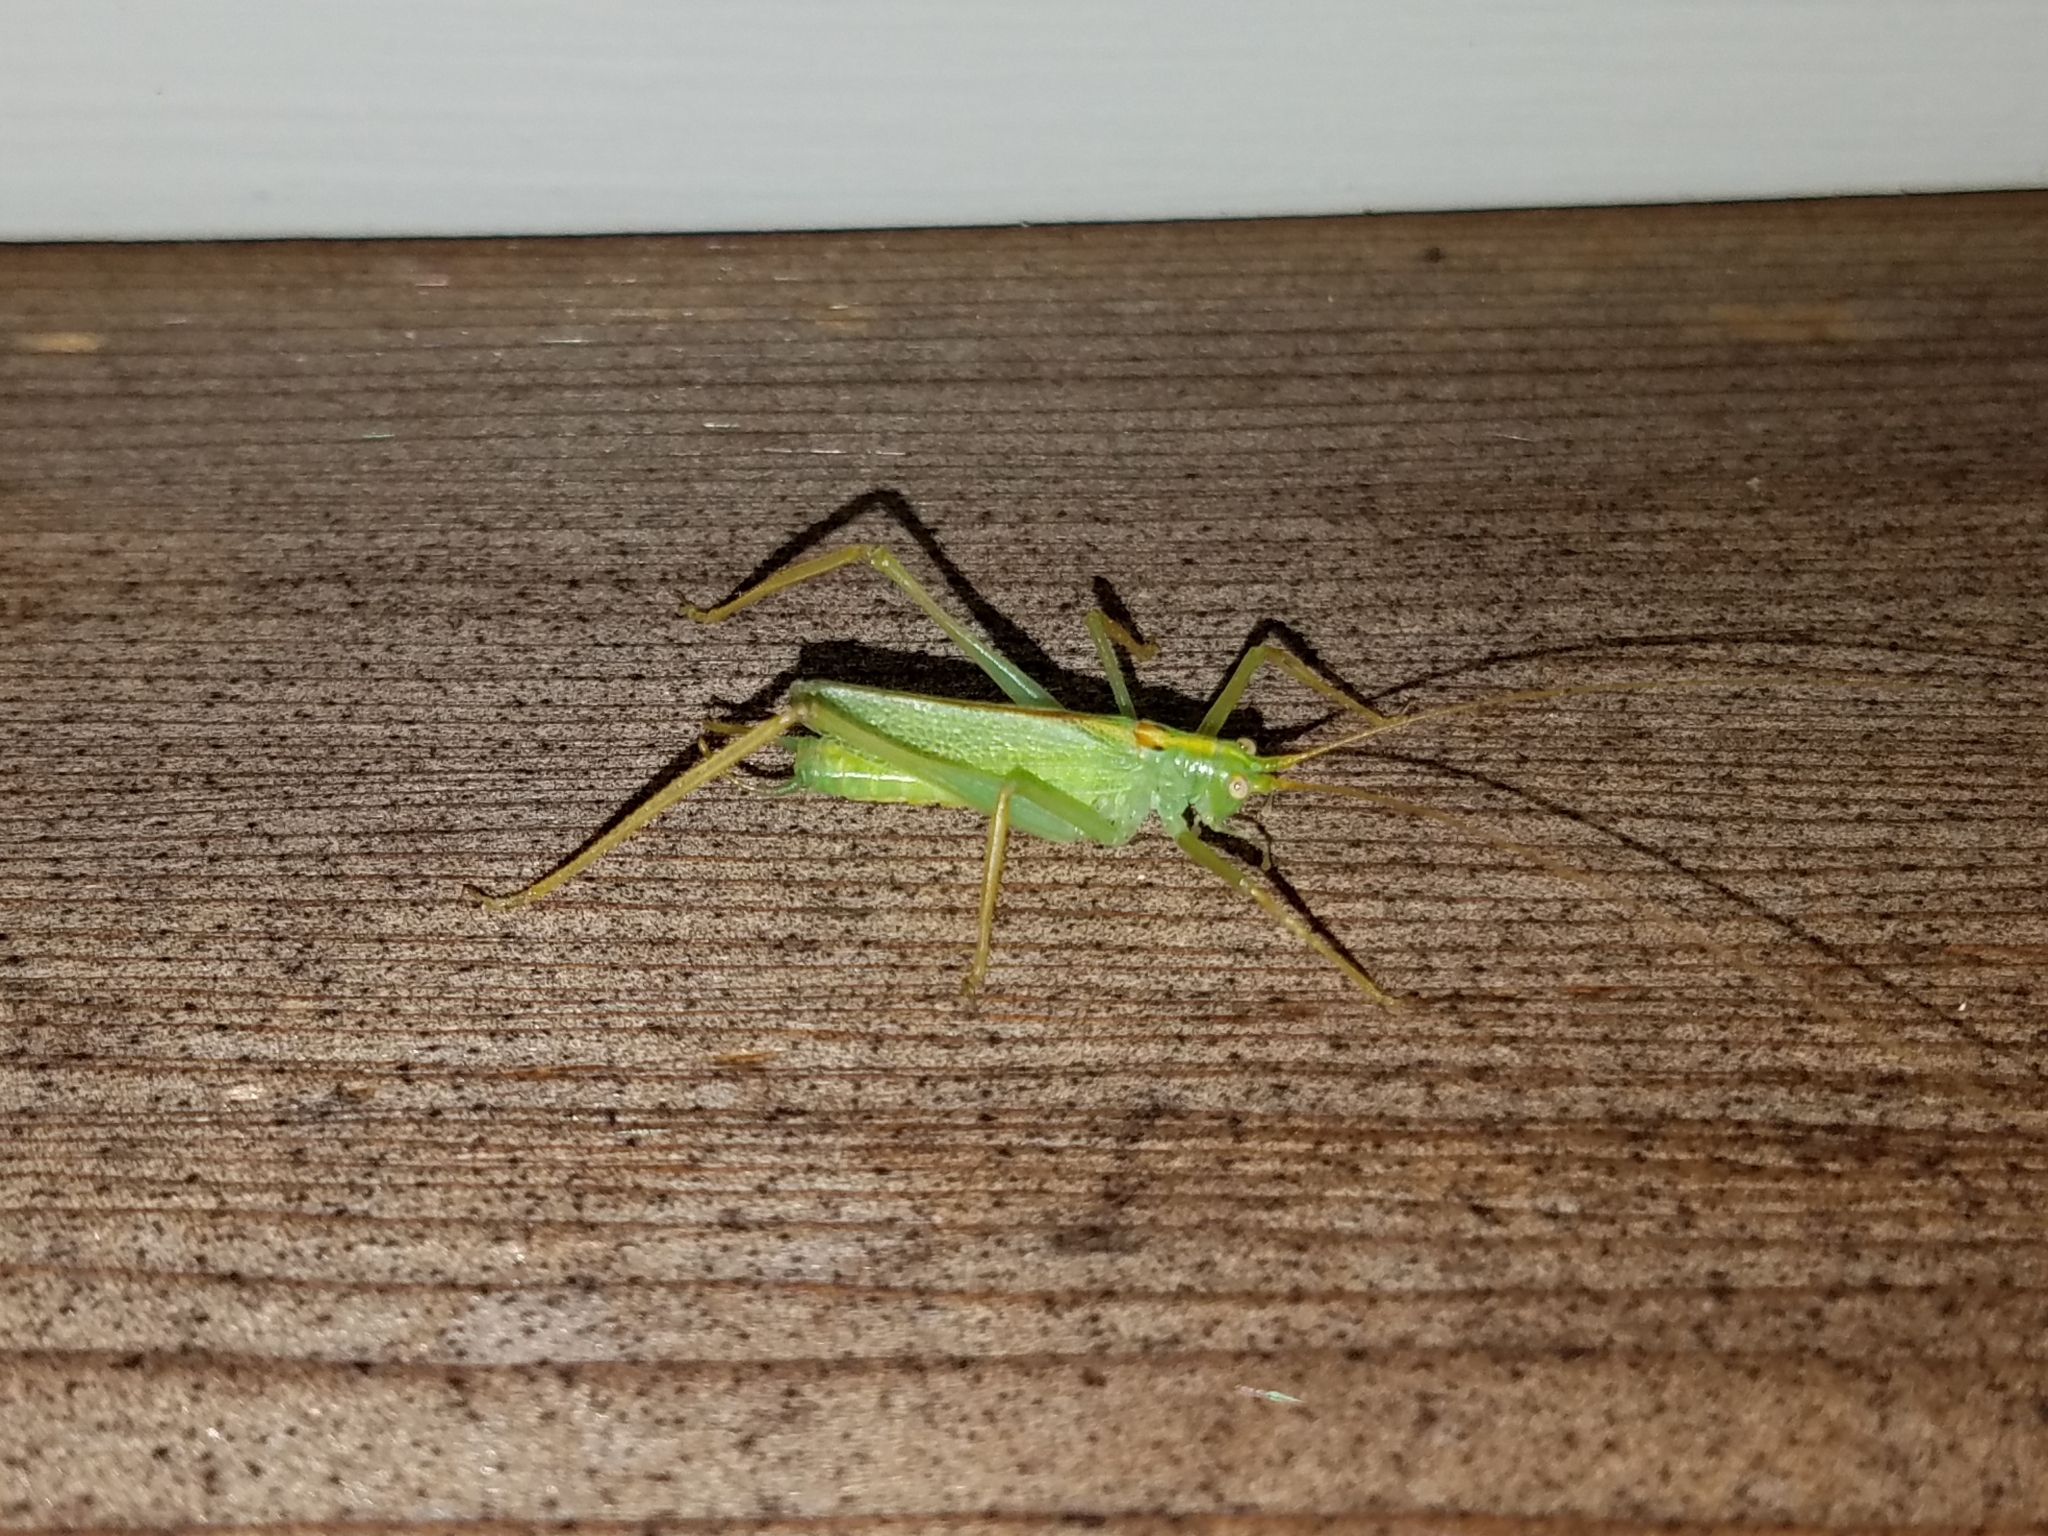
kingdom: Animalia
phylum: Arthropoda
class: Insecta
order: Orthoptera
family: Tettigoniidae
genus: Meconema
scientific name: Meconema thalassinum
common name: Oak bush-cricket
